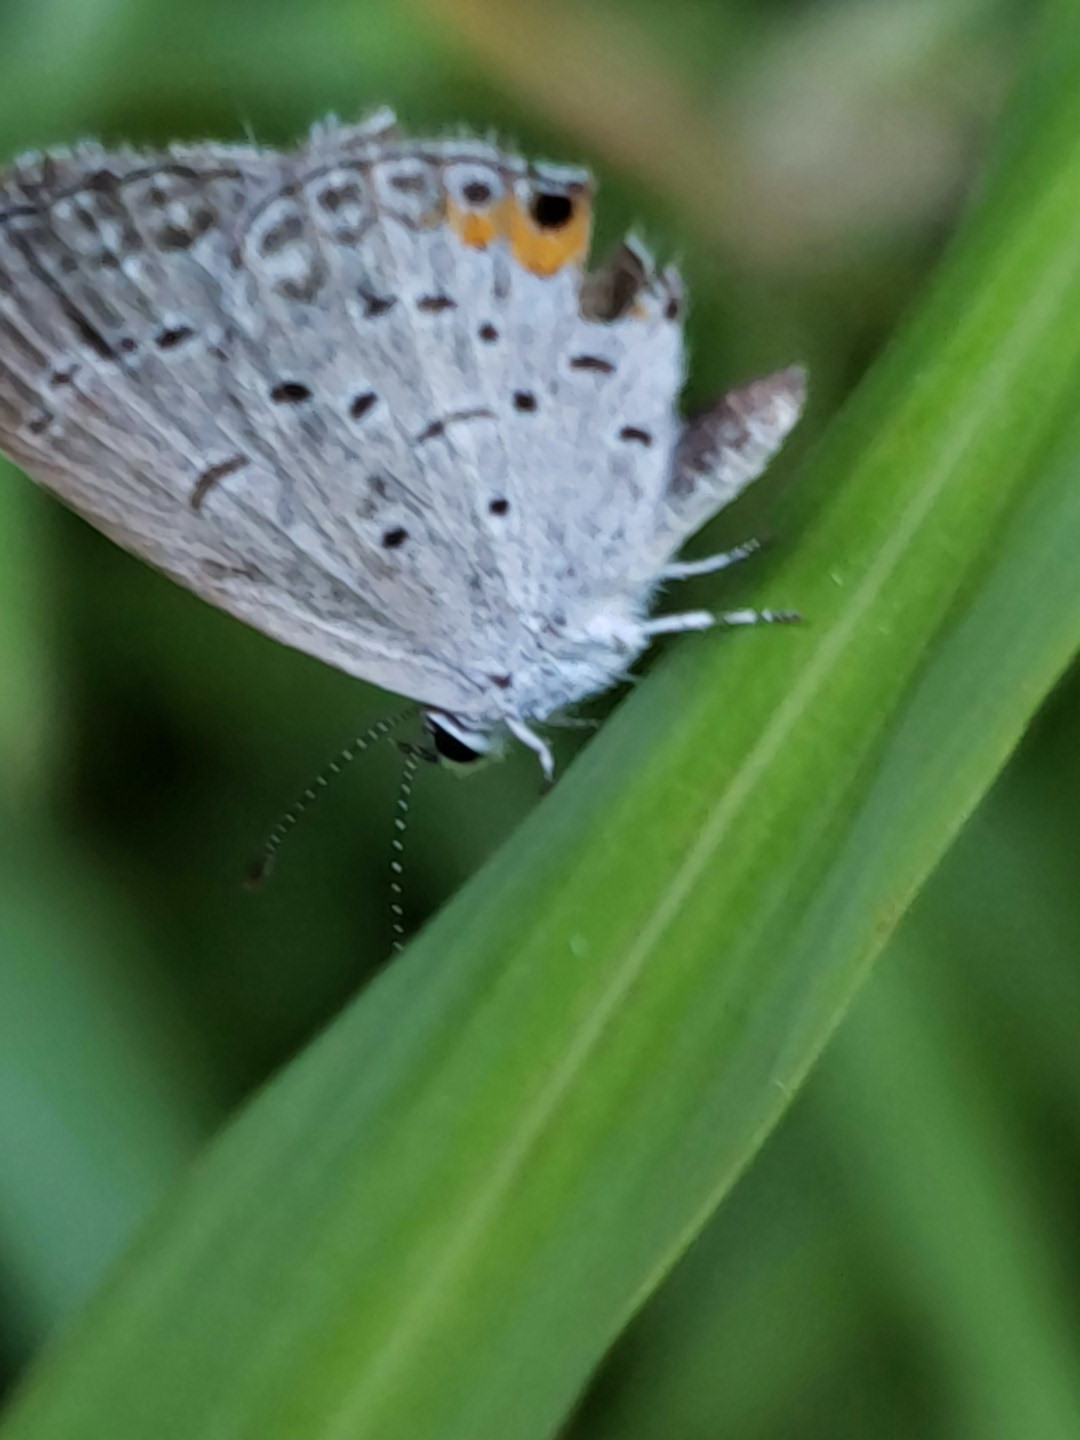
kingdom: Animalia
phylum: Arthropoda
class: Insecta
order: Lepidoptera
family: Lycaenidae
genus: Elkalyce
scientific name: Elkalyce comyntas
